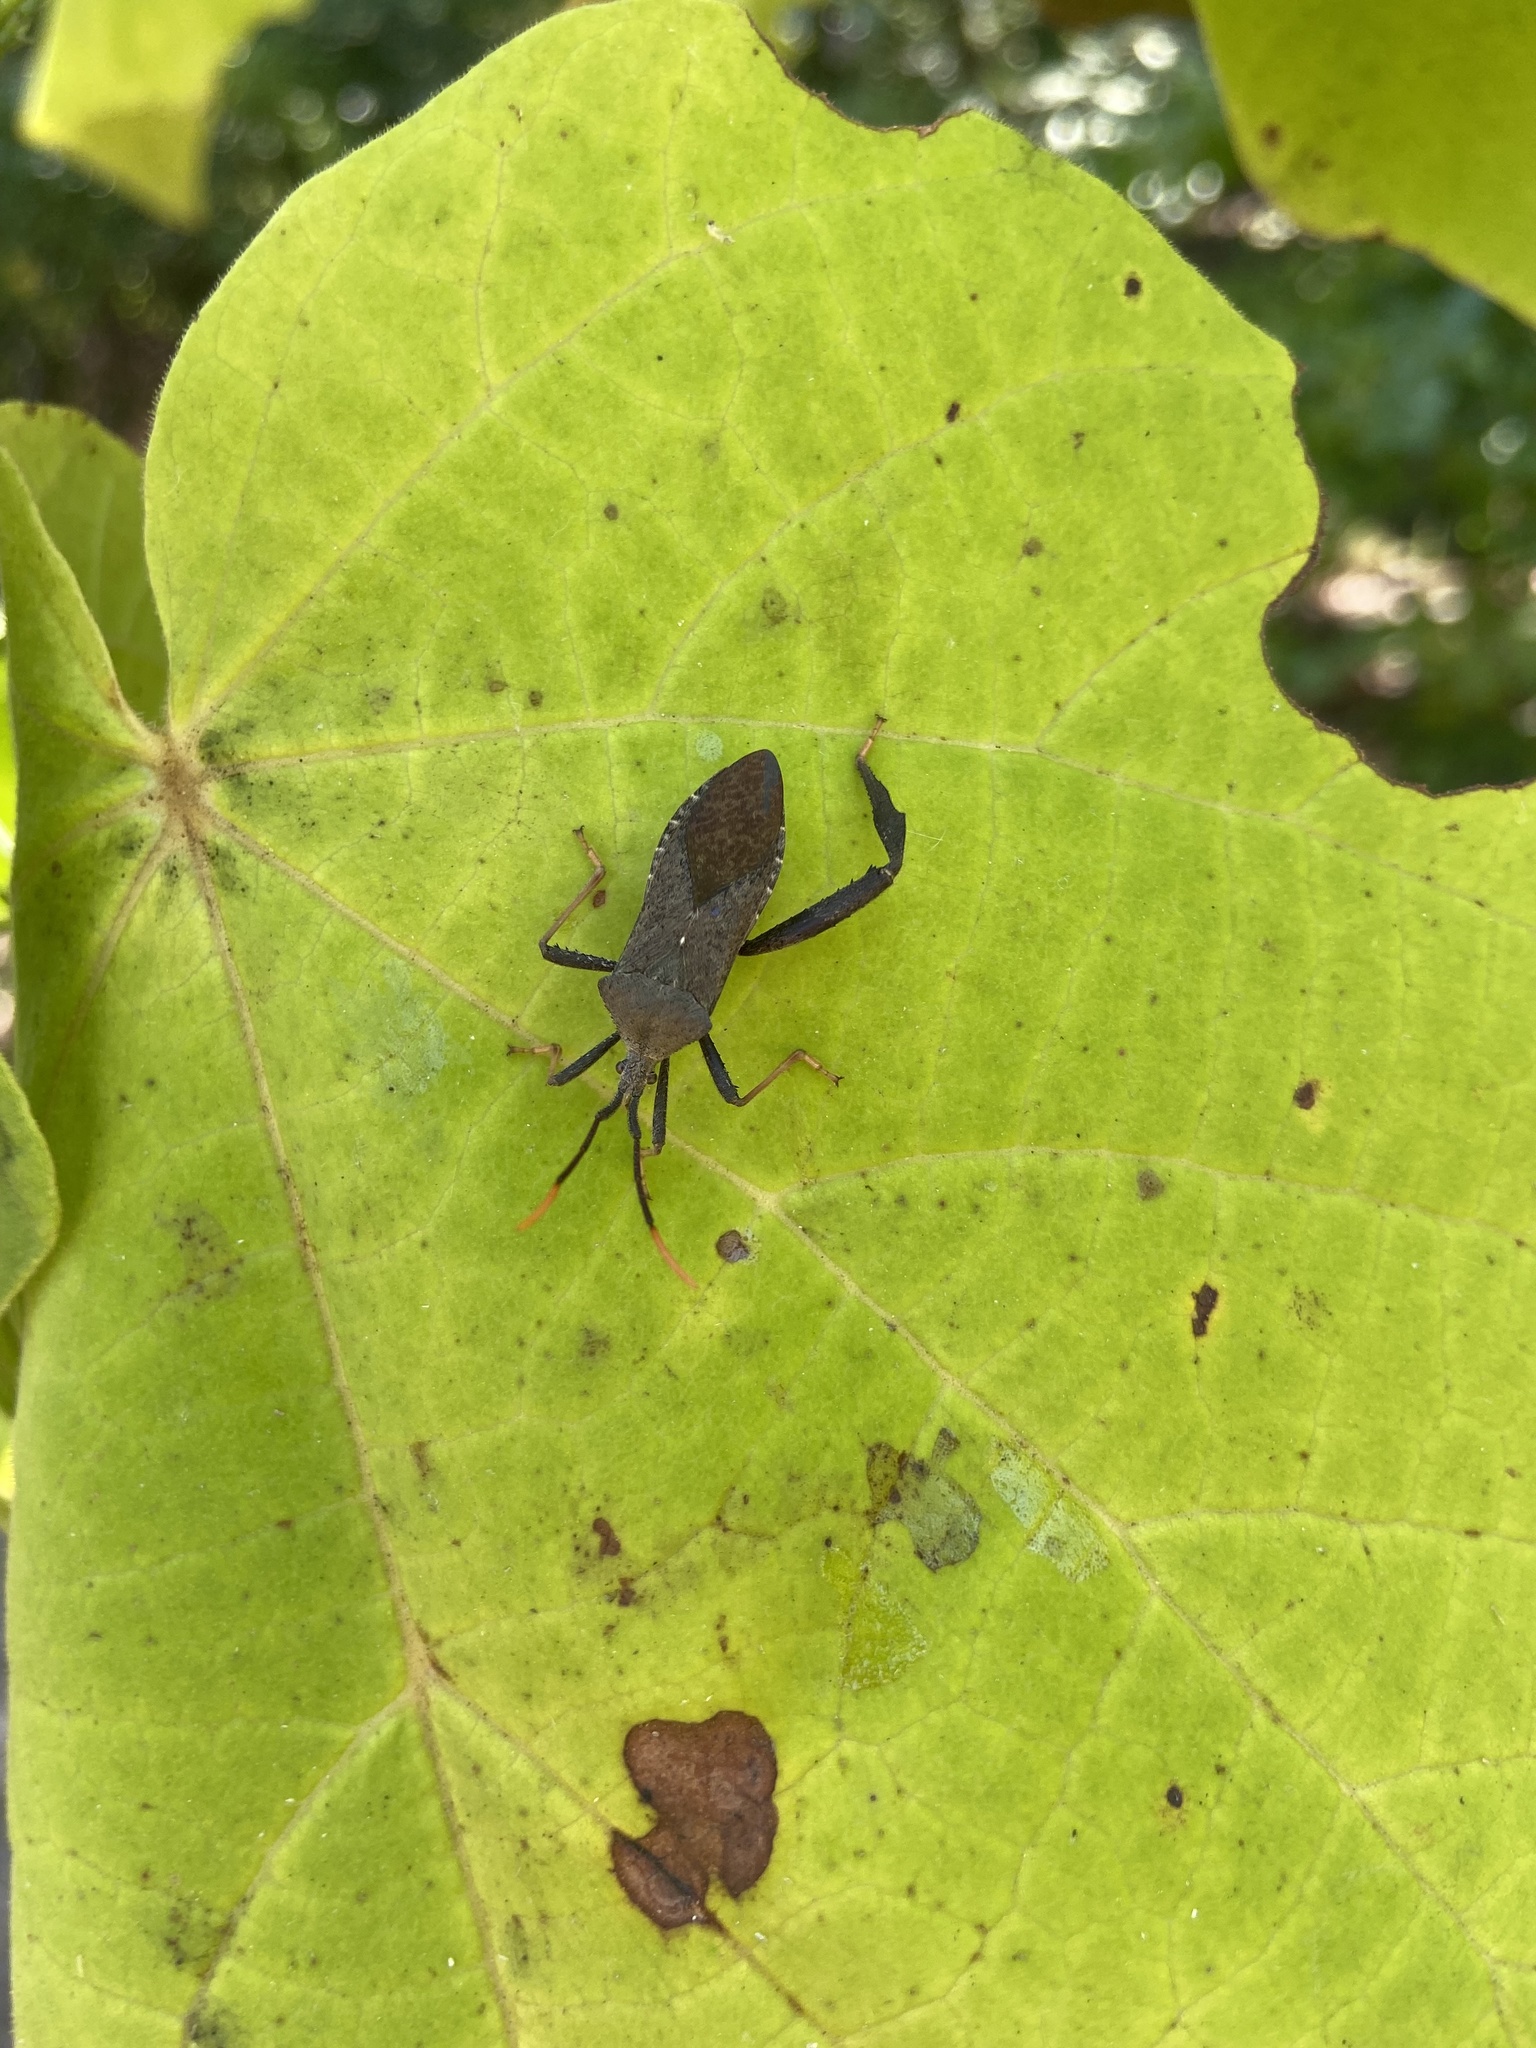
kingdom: Animalia
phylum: Arthropoda
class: Insecta
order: Hemiptera
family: Coreidae
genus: Acanthocephala
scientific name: Acanthocephala terminalis
